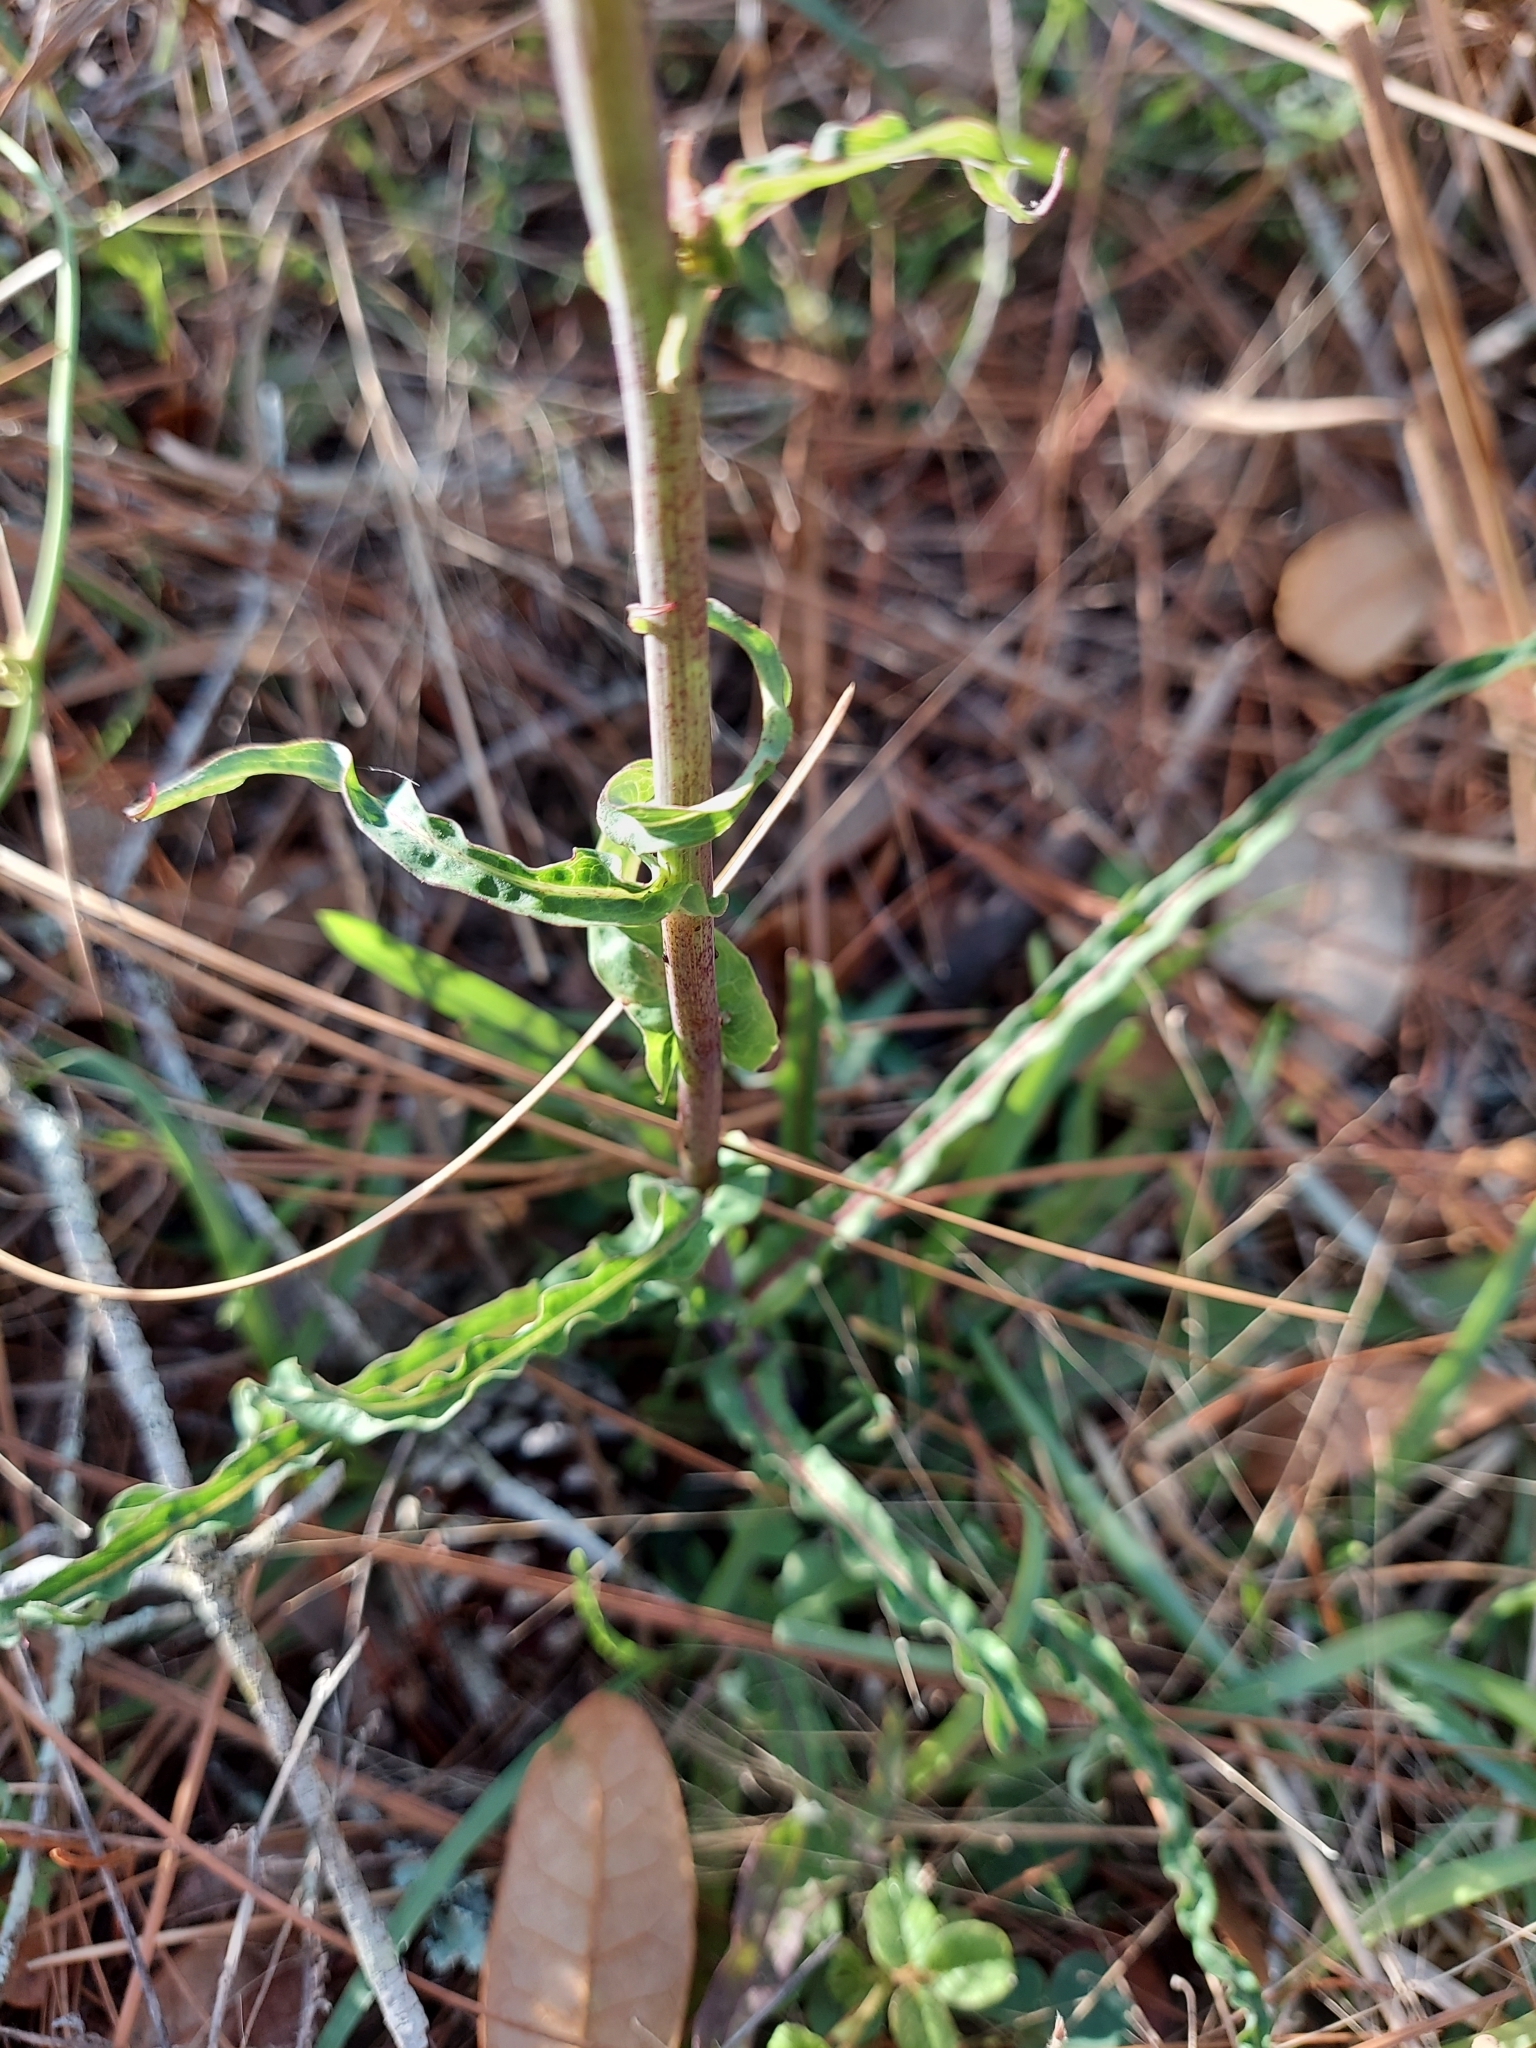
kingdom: Plantae
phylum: Tracheophyta
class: Magnoliopsida
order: Asterales
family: Asteraceae
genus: Lactuca
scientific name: Lactuca graminifolia
